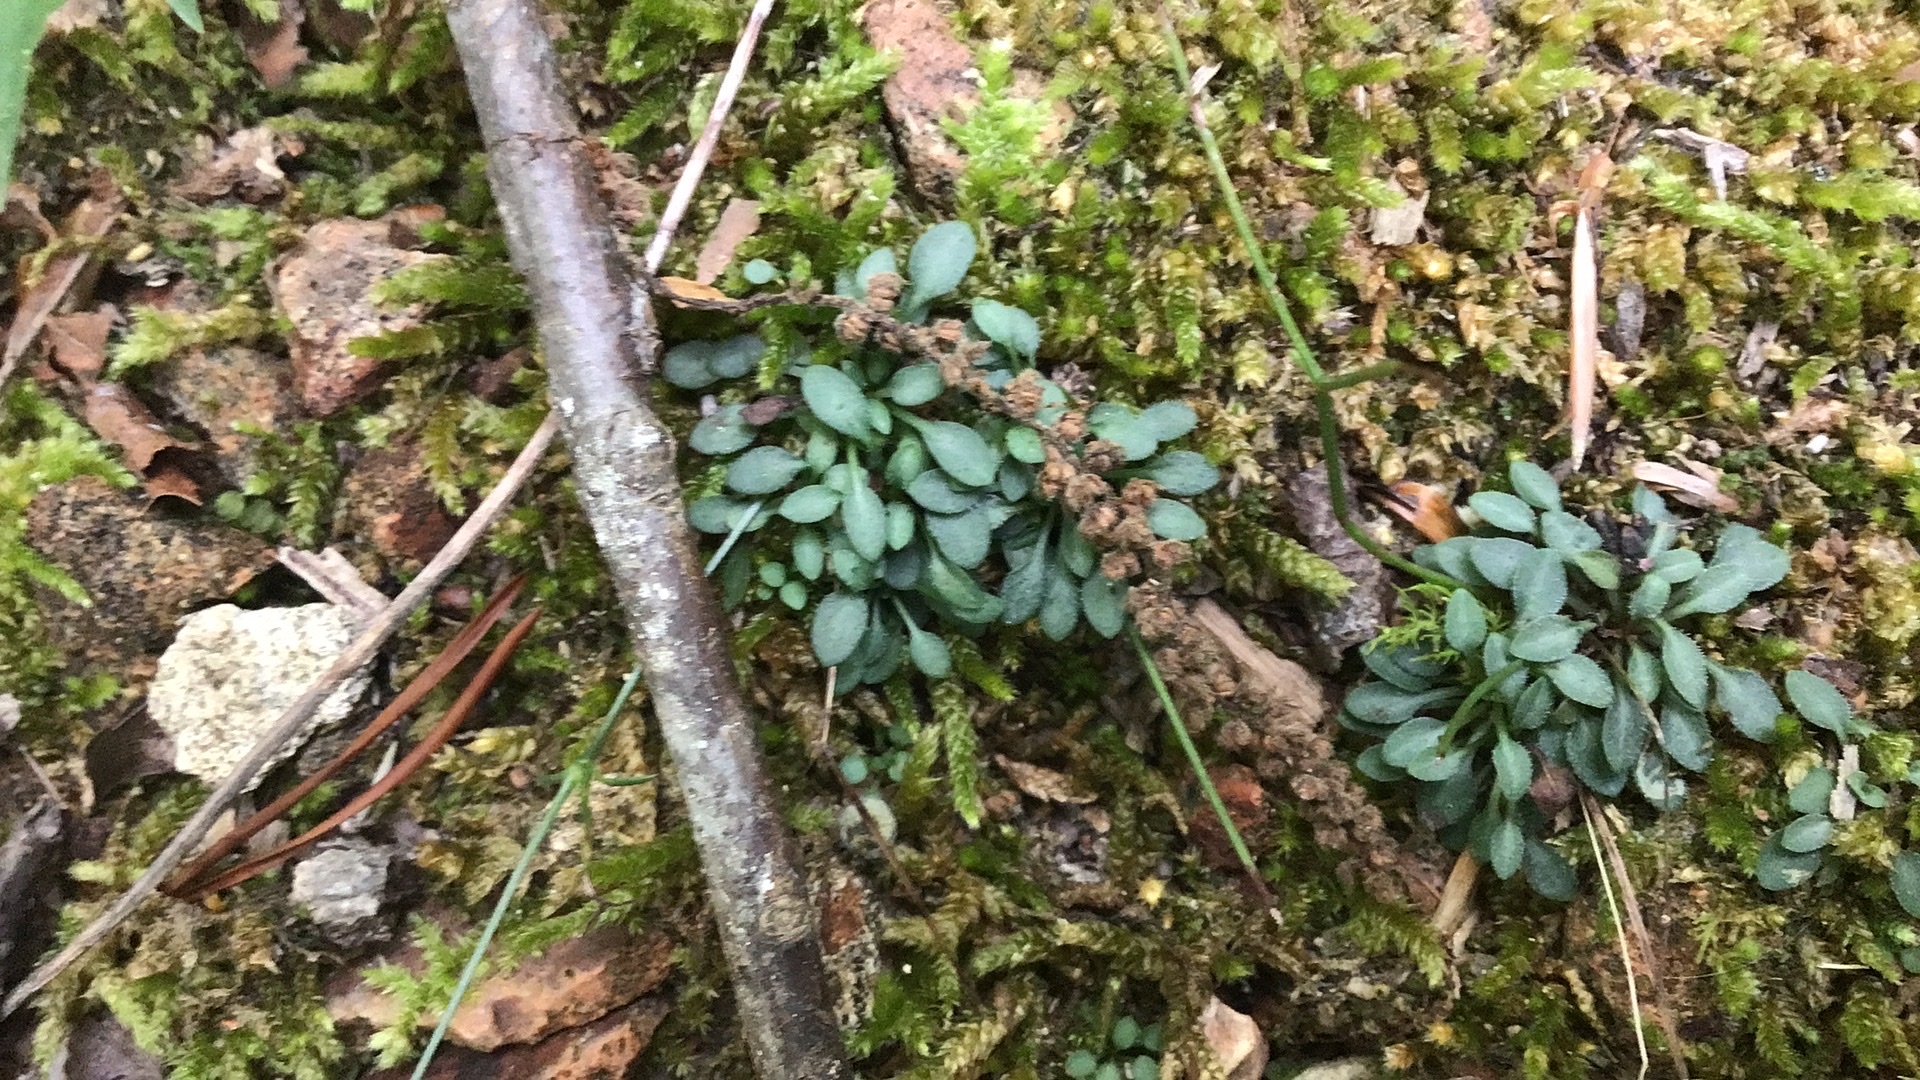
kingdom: Plantae
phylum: Tracheophyta
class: Magnoliopsida
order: Gentianales
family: Rubiaceae
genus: Houstonia
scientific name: Houstonia caerulea
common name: Bluets
